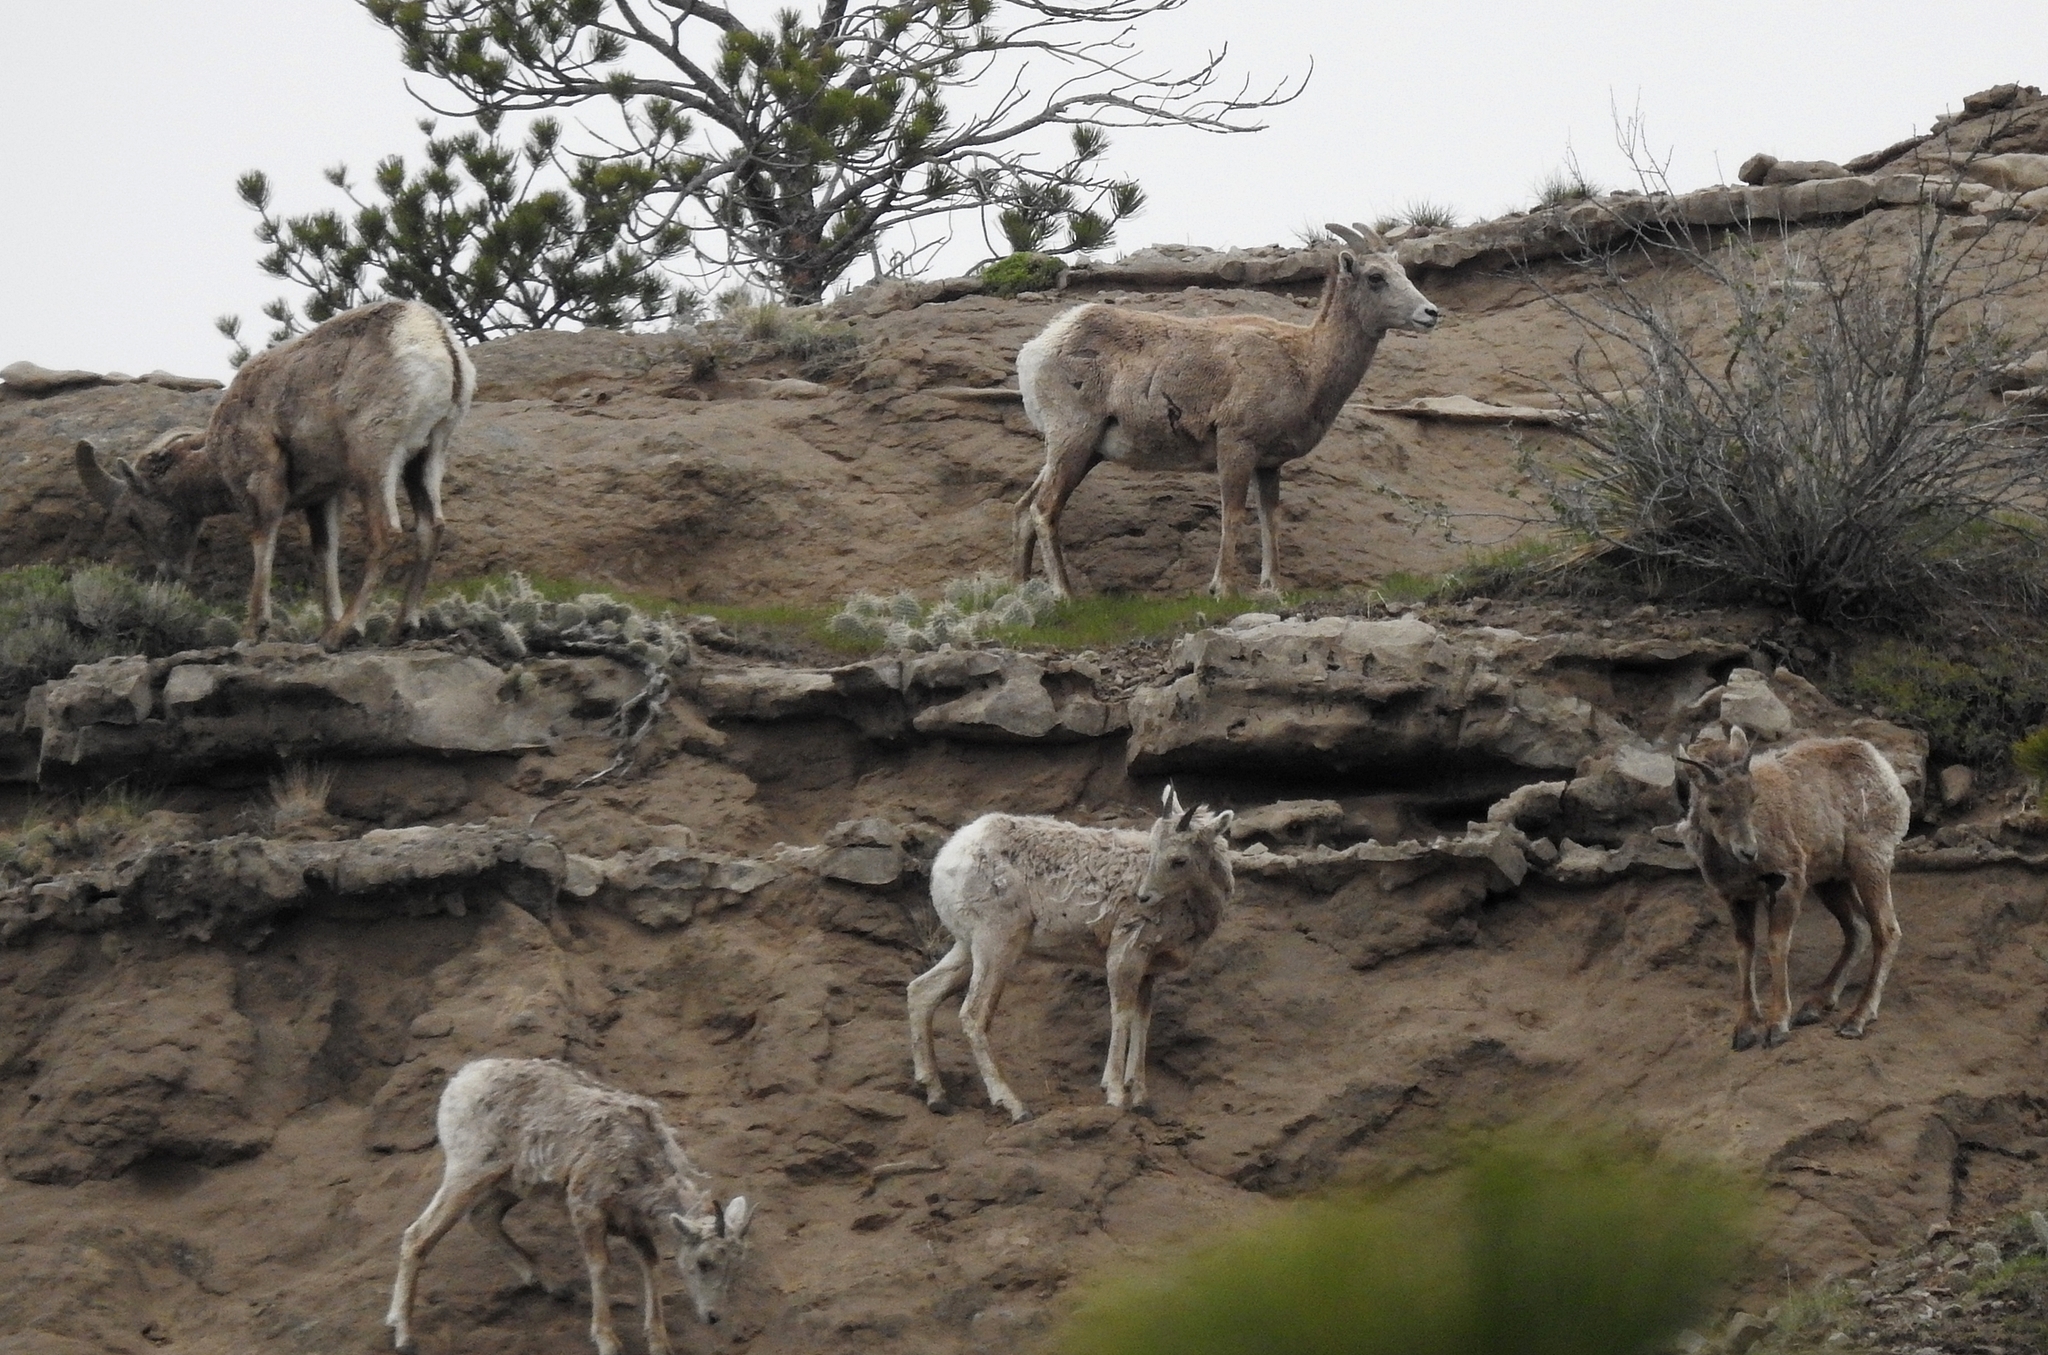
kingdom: Animalia
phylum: Chordata
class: Mammalia
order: Artiodactyla
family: Bovidae
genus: Ovis
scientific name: Ovis canadensis
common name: Bighorn sheep
